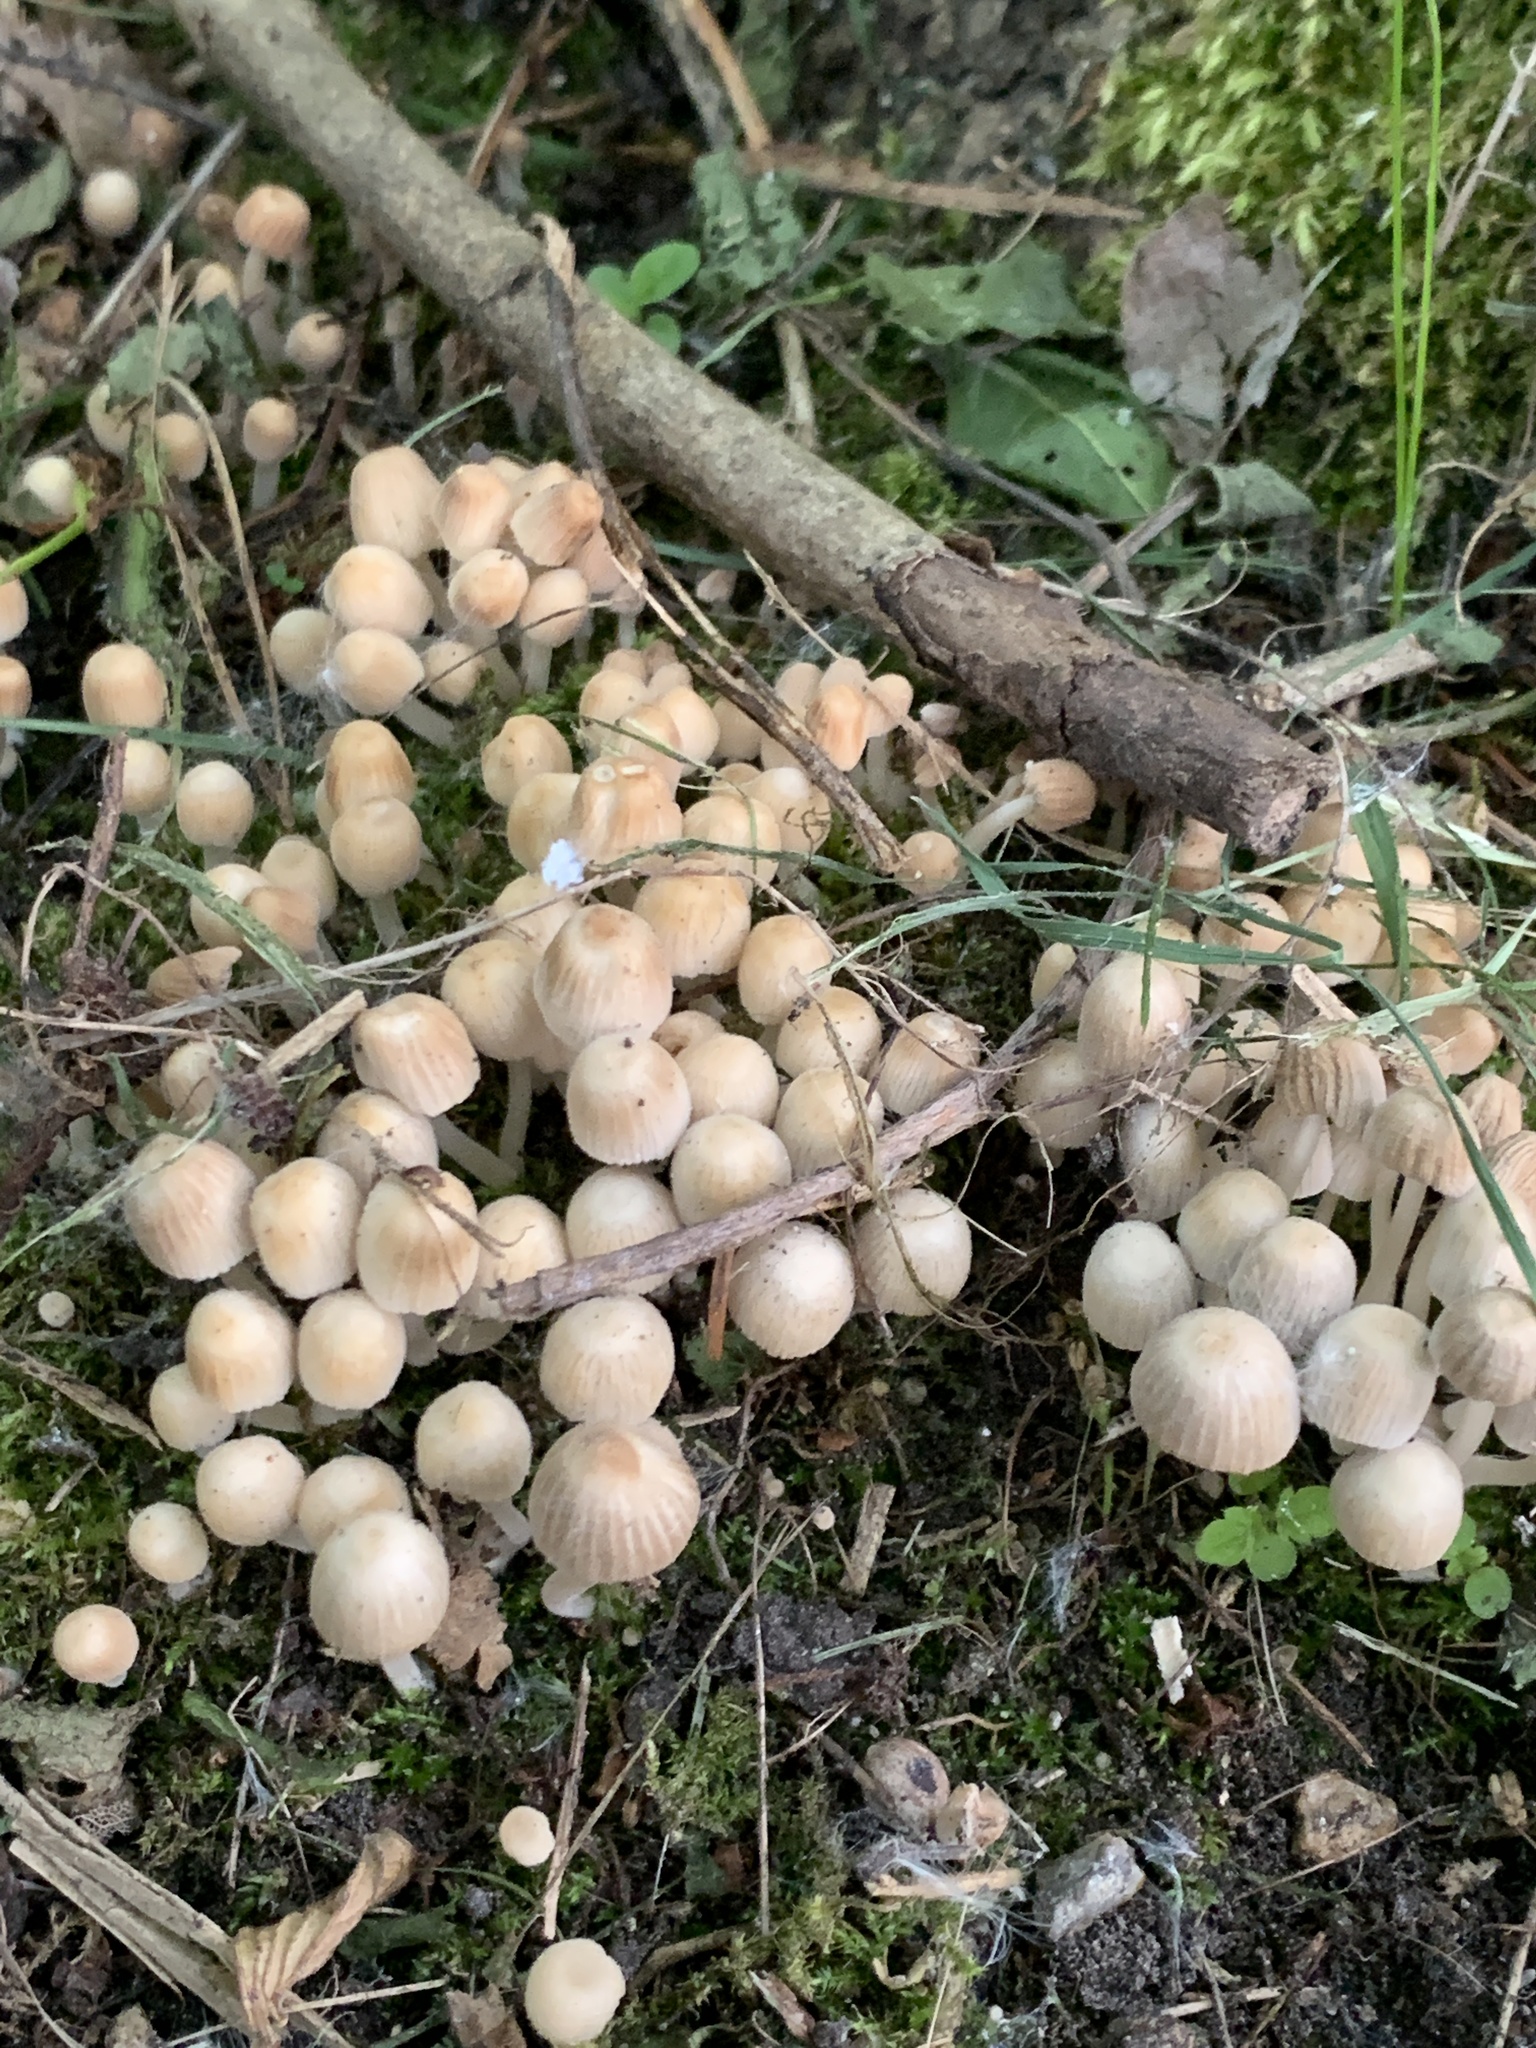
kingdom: Fungi
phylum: Basidiomycota
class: Agaricomycetes
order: Agaricales
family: Psathyrellaceae
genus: Coprinellus
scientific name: Coprinellus disseminatus
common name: Fairies' bonnets
